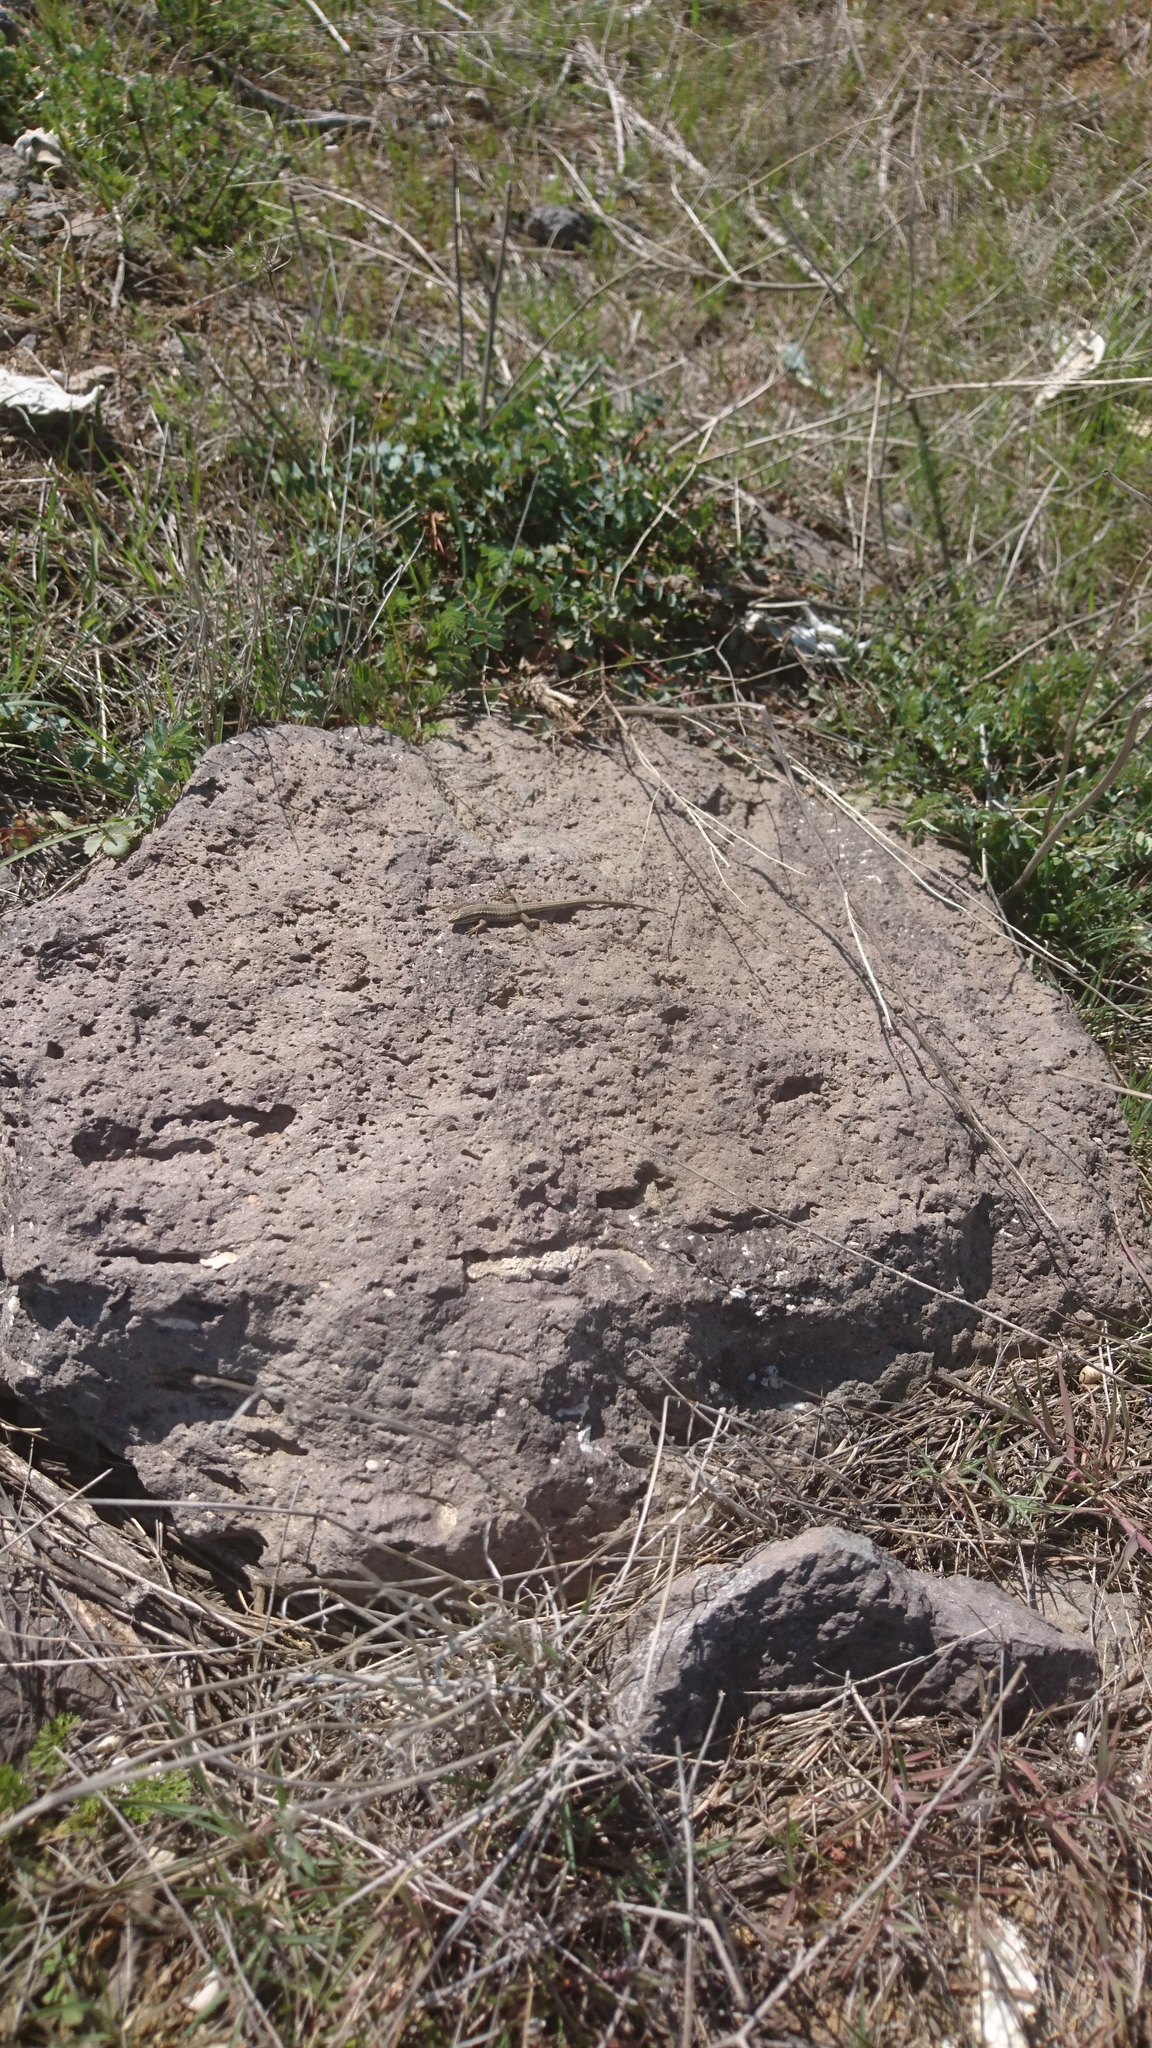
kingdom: Animalia
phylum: Chordata
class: Squamata
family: Lacertidae
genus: Ophisops
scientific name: Ophisops elegans
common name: Snake-eyed lizard
